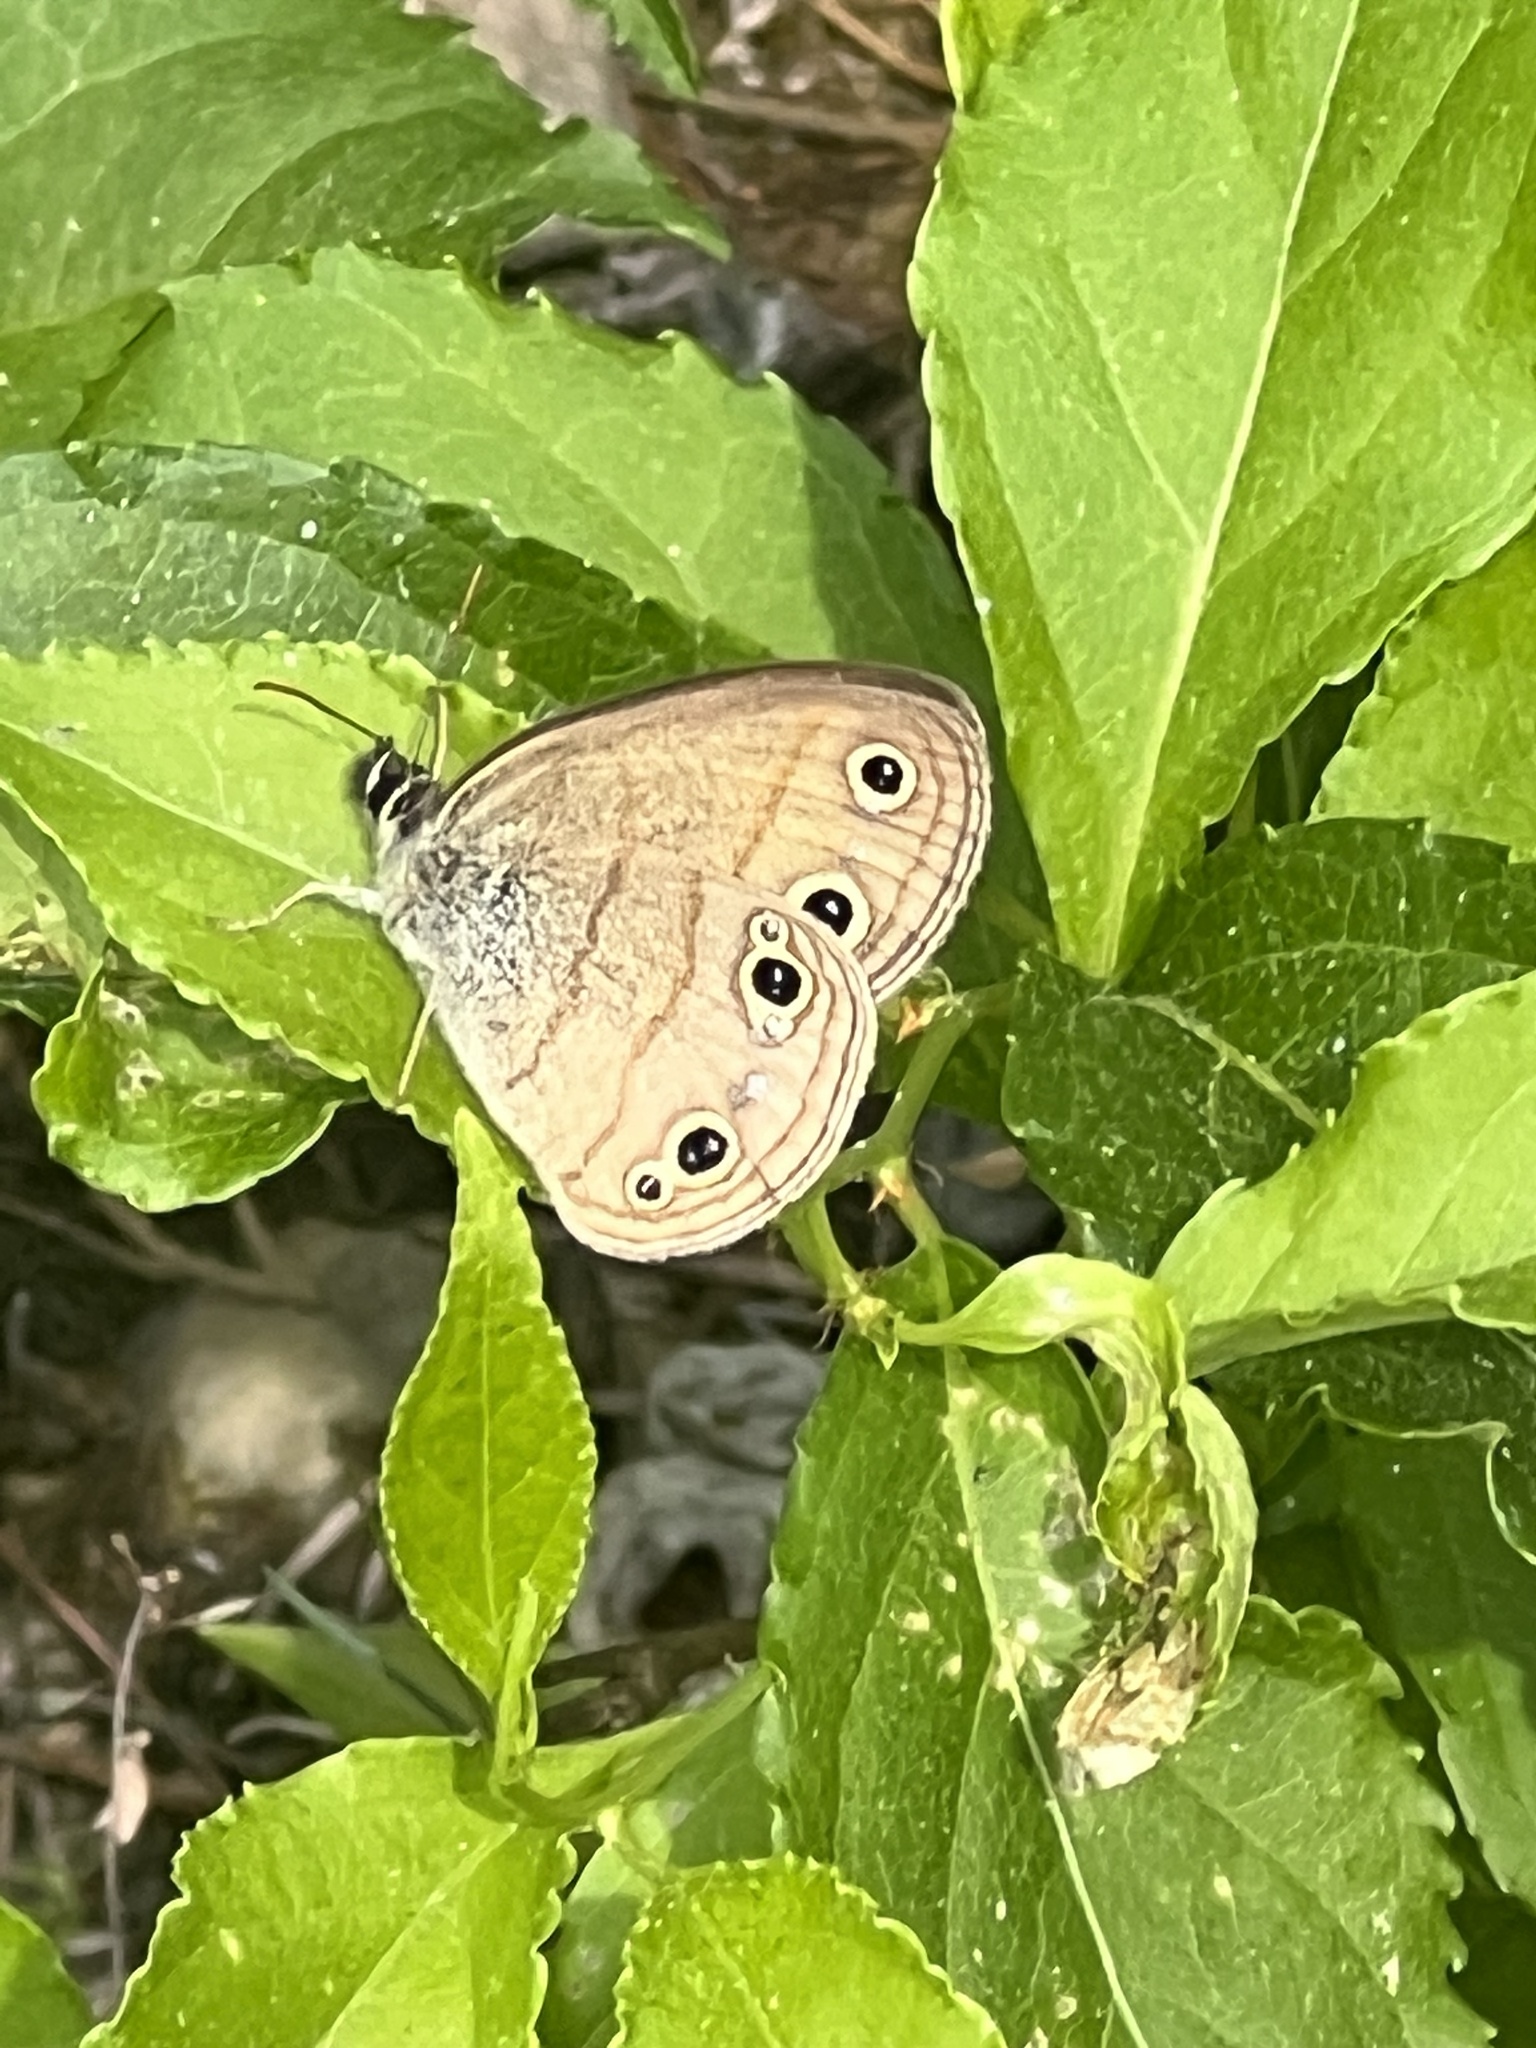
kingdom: Animalia
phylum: Arthropoda
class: Insecta
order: Lepidoptera
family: Nymphalidae
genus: Euptychia
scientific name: Euptychia cymela
